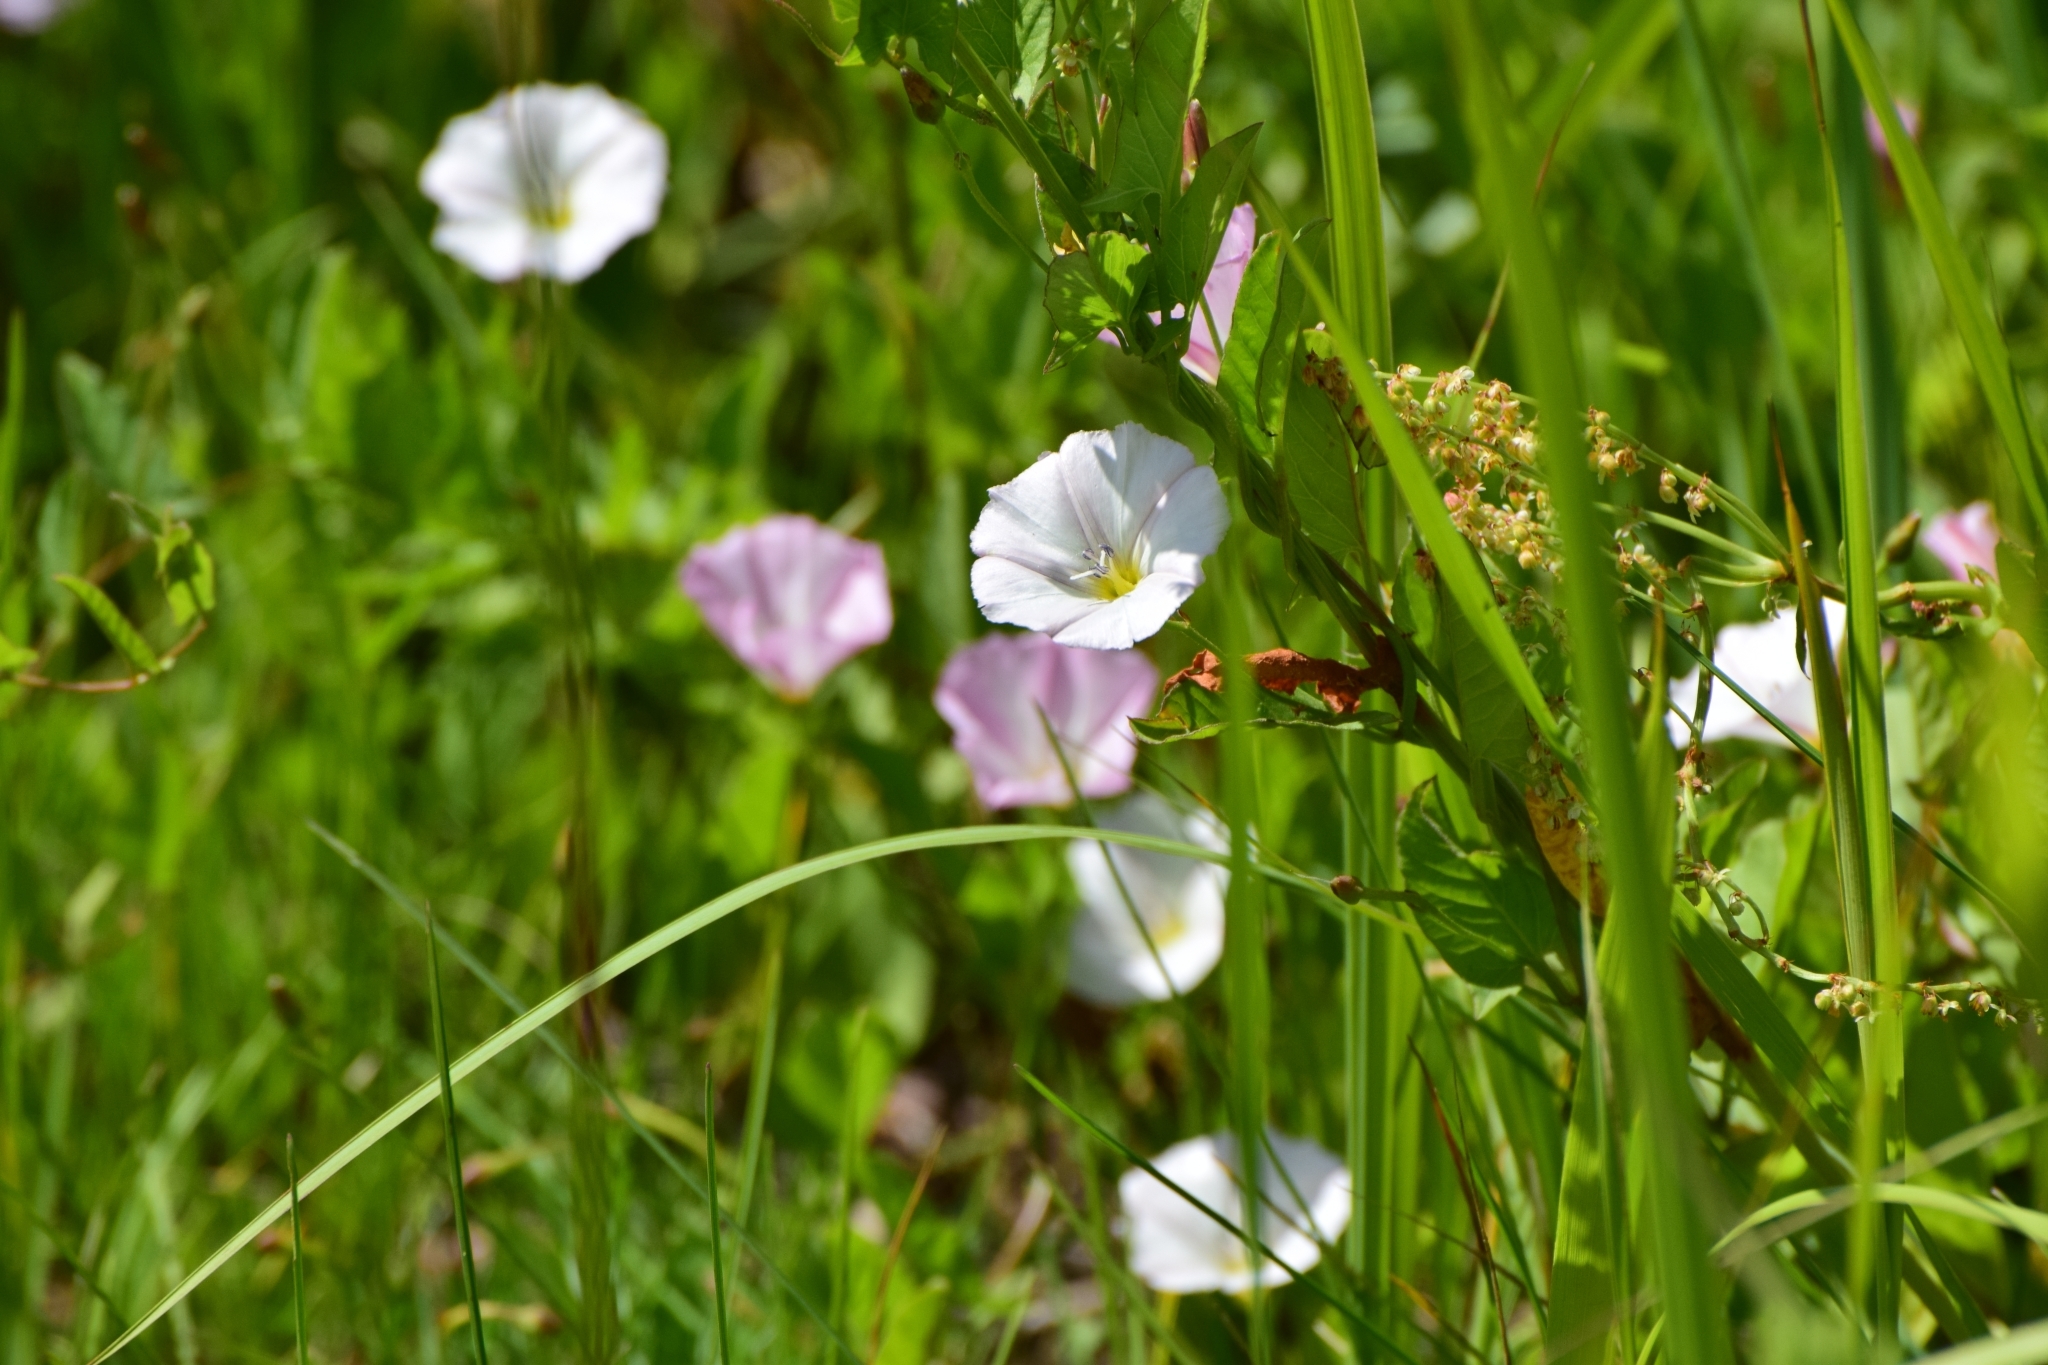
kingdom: Plantae
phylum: Tracheophyta
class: Magnoliopsida
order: Solanales
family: Convolvulaceae
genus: Convolvulus
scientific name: Convolvulus arvensis
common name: Field bindweed
